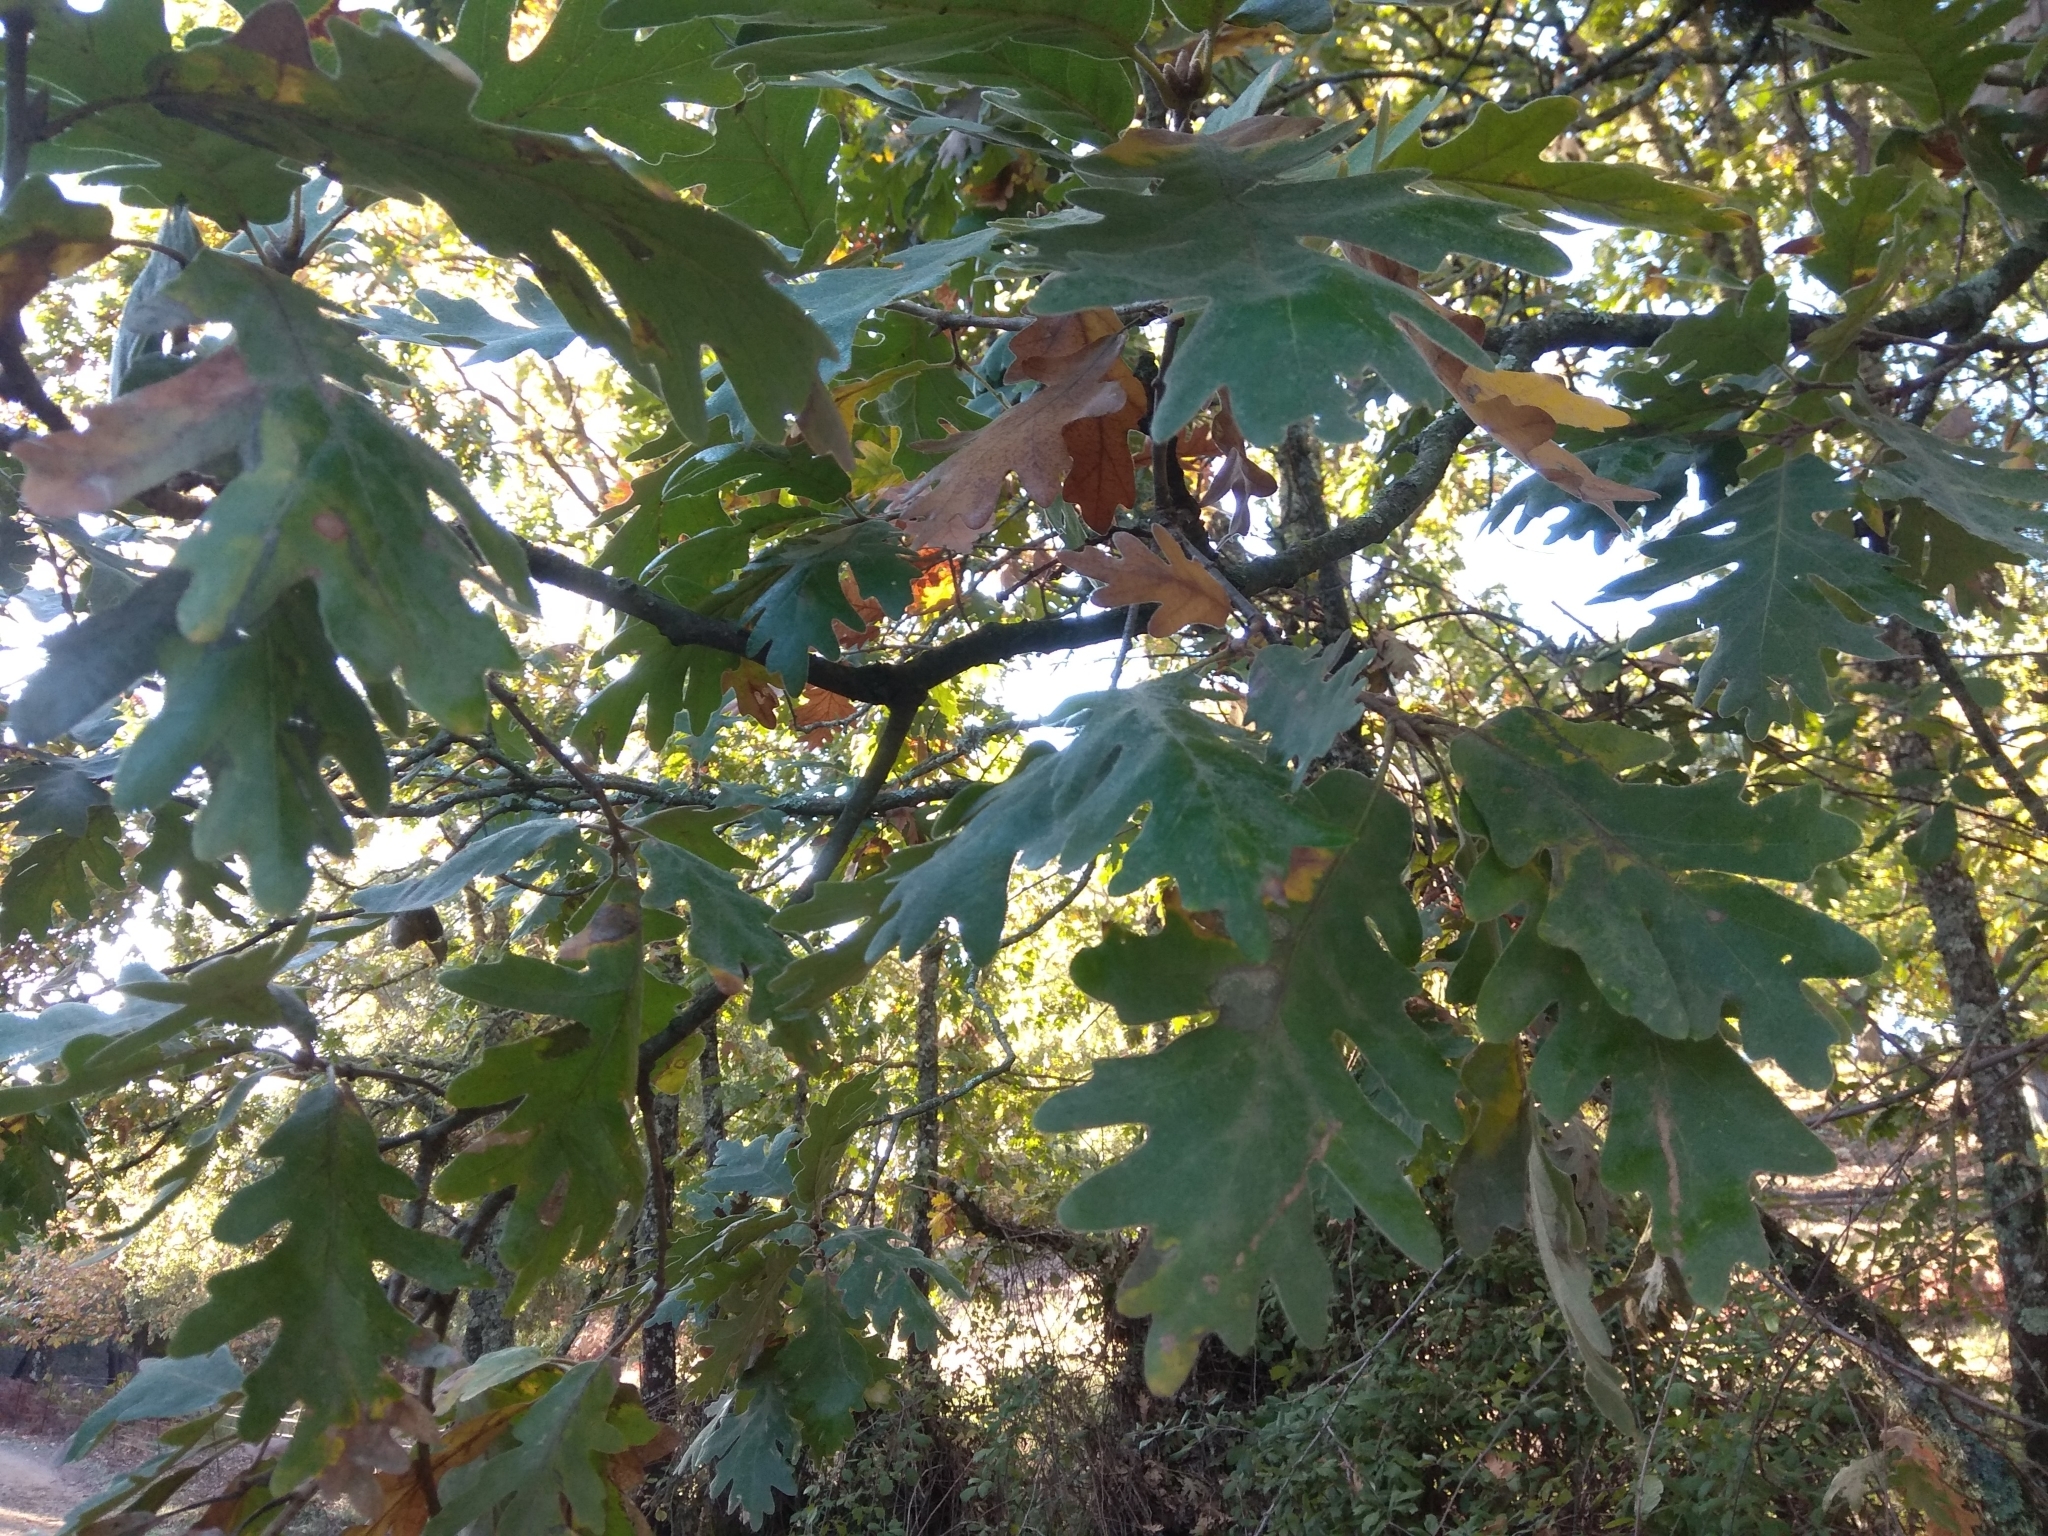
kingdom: Plantae
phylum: Tracheophyta
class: Magnoliopsida
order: Fagales
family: Fagaceae
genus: Quercus
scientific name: Quercus pyrenaica
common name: Pyrenean oak
